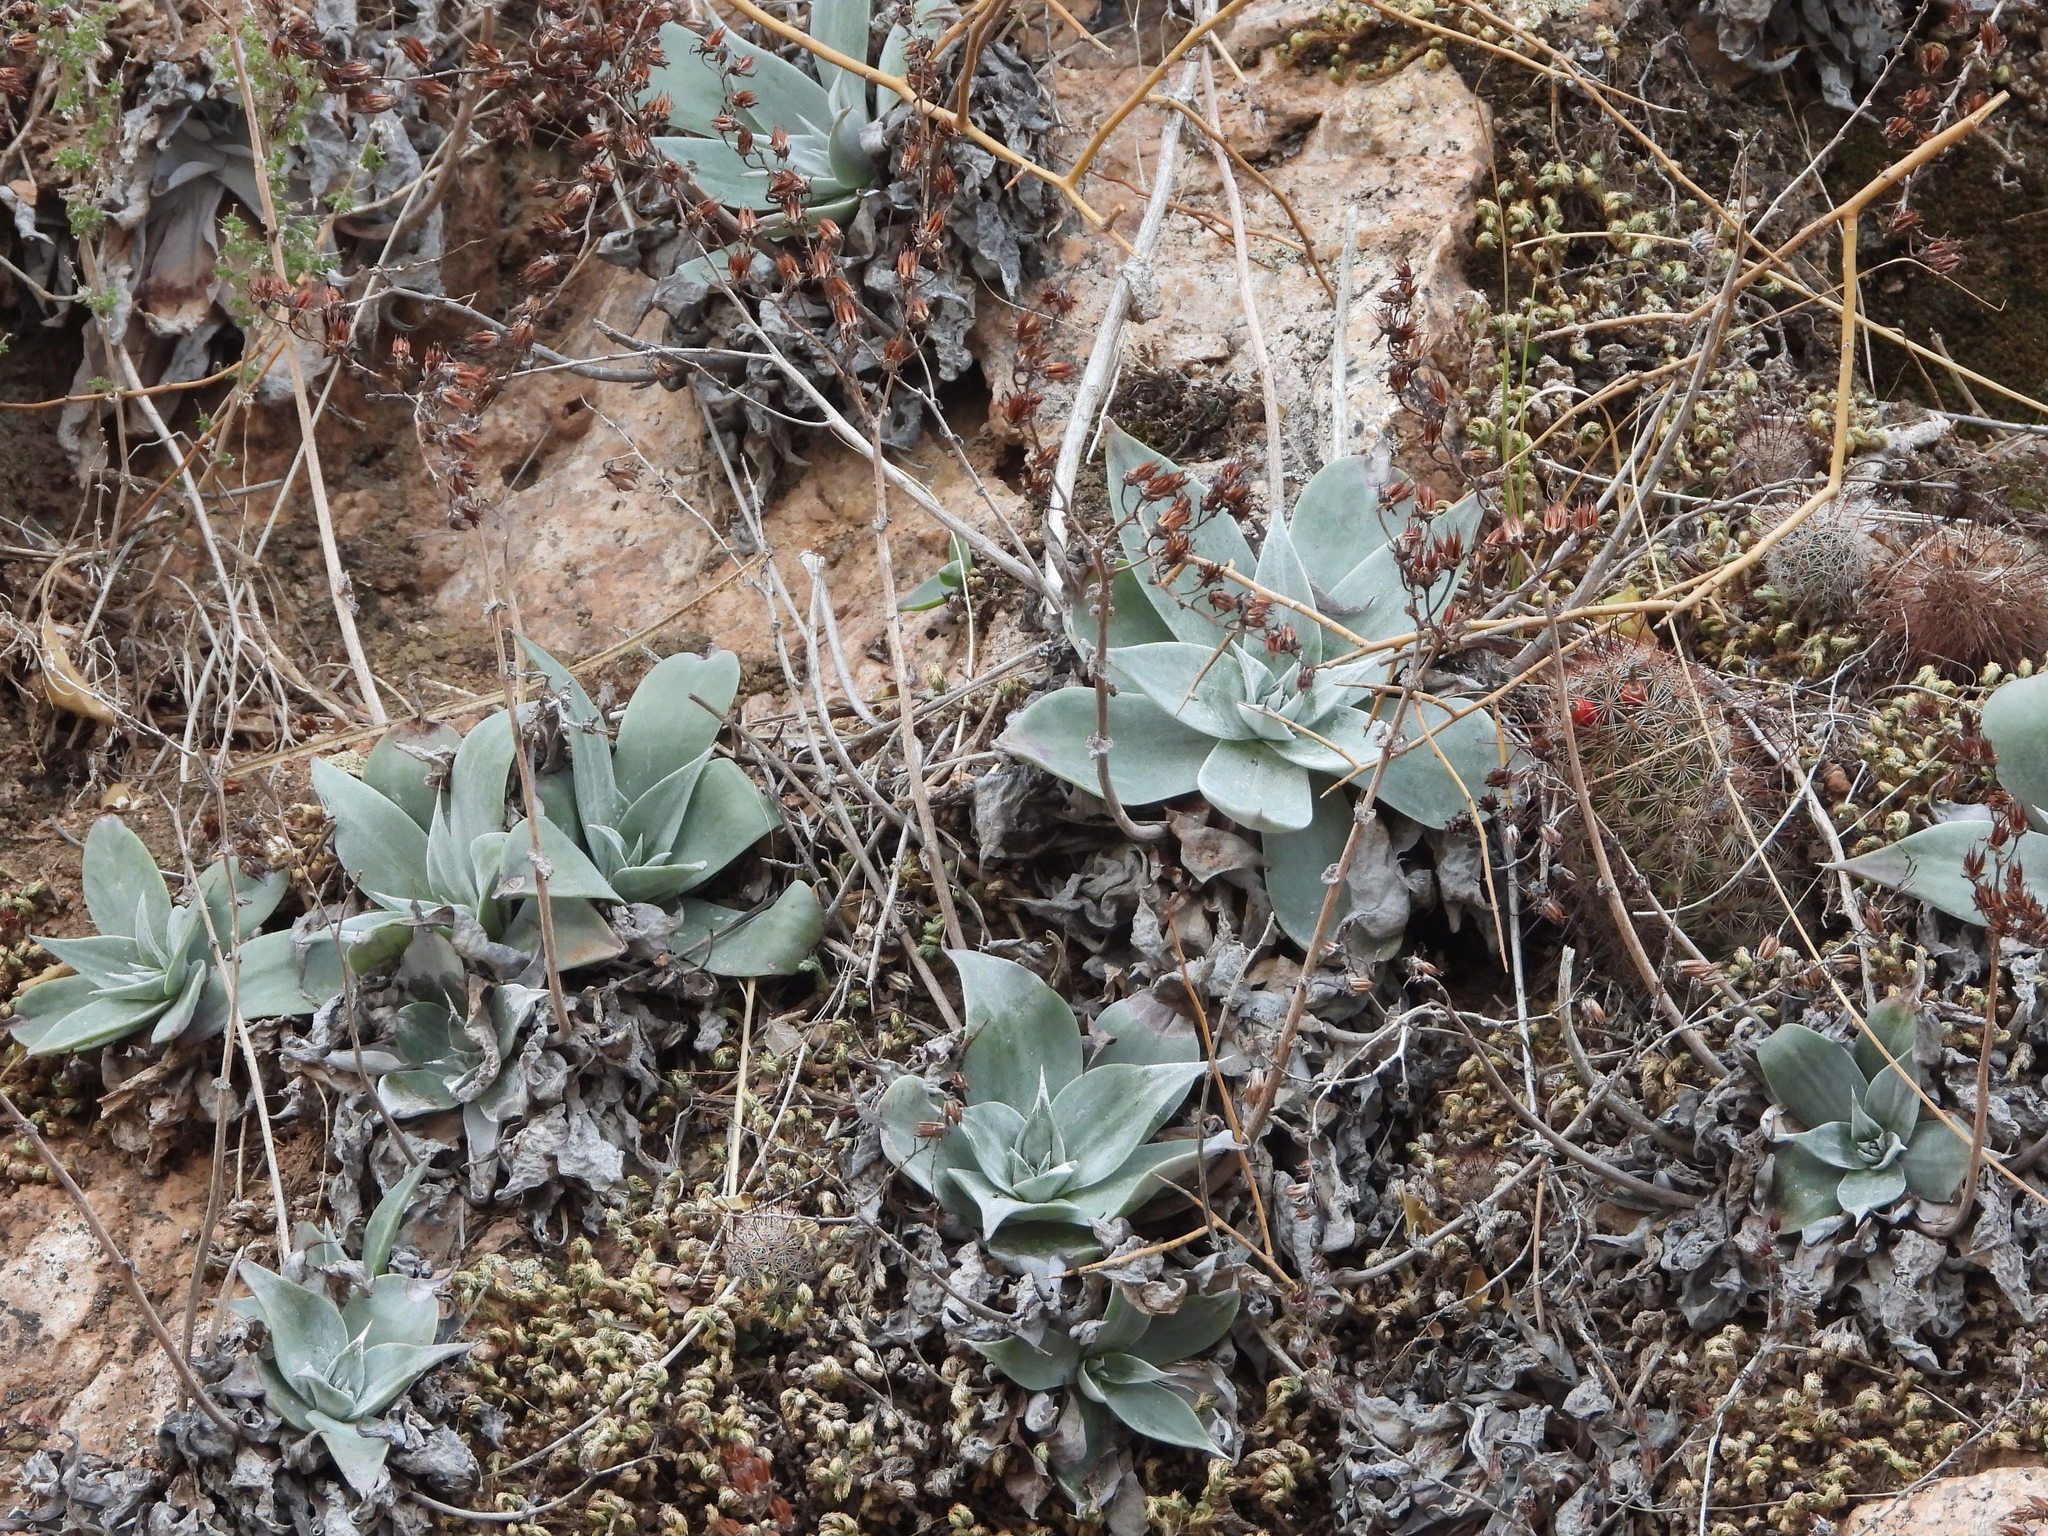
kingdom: Plantae
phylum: Tracheophyta
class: Magnoliopsida
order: Saxifragales
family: Crassulaceae
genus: Dudleya
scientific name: Dudleya arizonica
